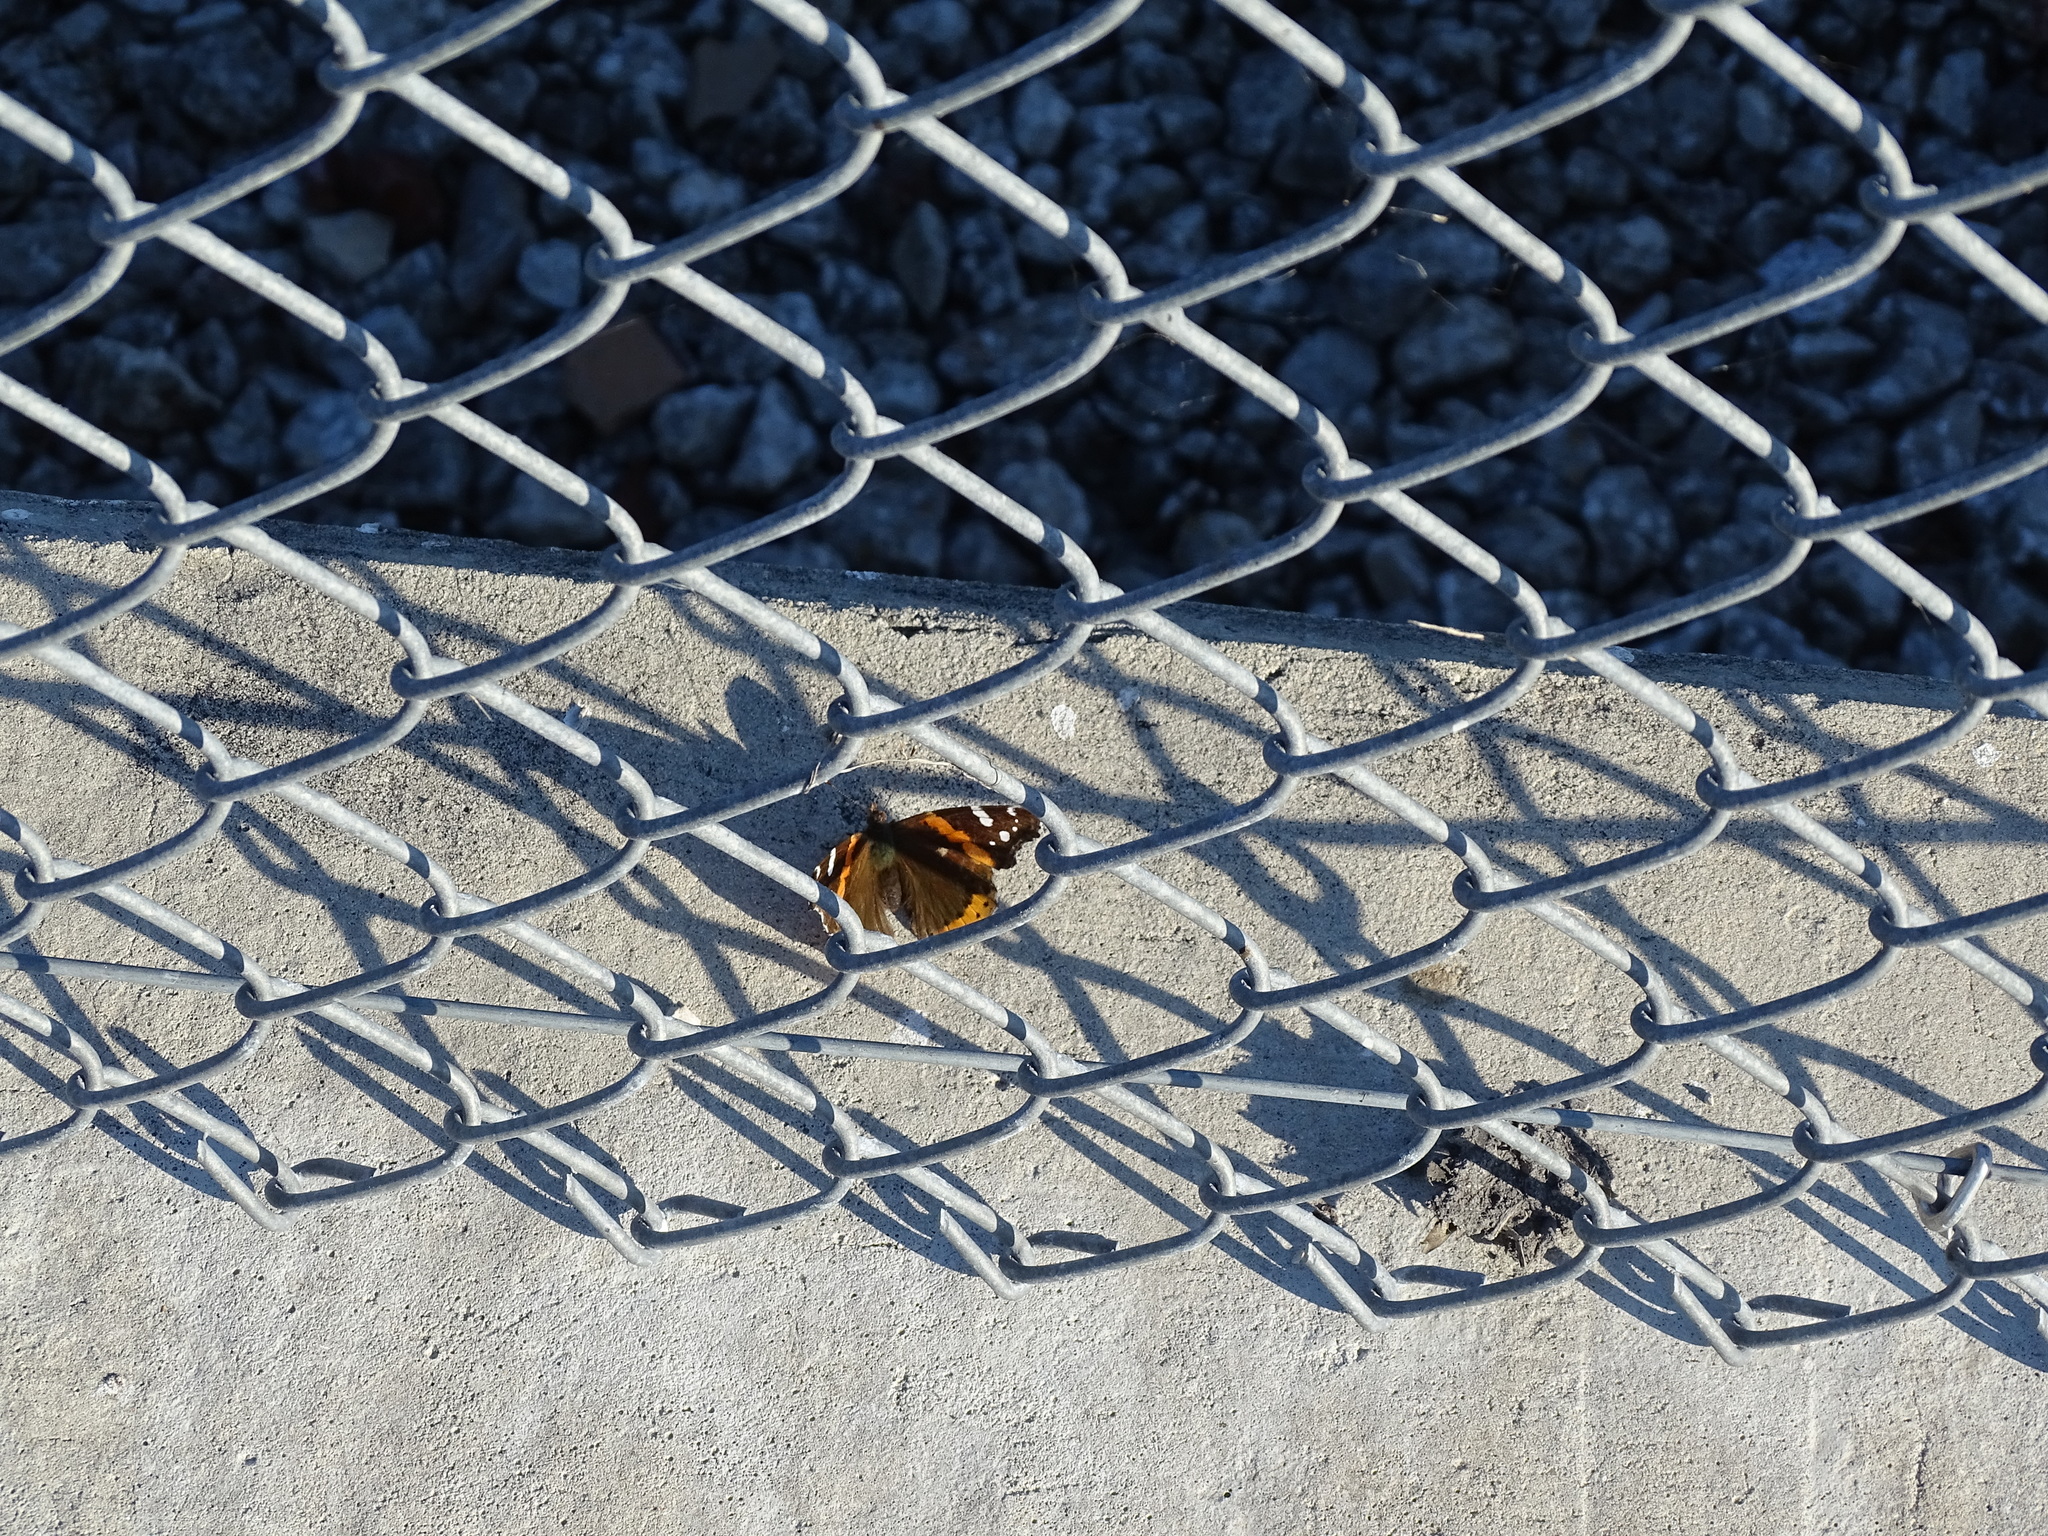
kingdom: Animalia
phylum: Arthropoda
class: Insecta
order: Lepidoptera
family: Nymphalidae
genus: Vanessa
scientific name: Vanessa atalanta
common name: Red admiral
